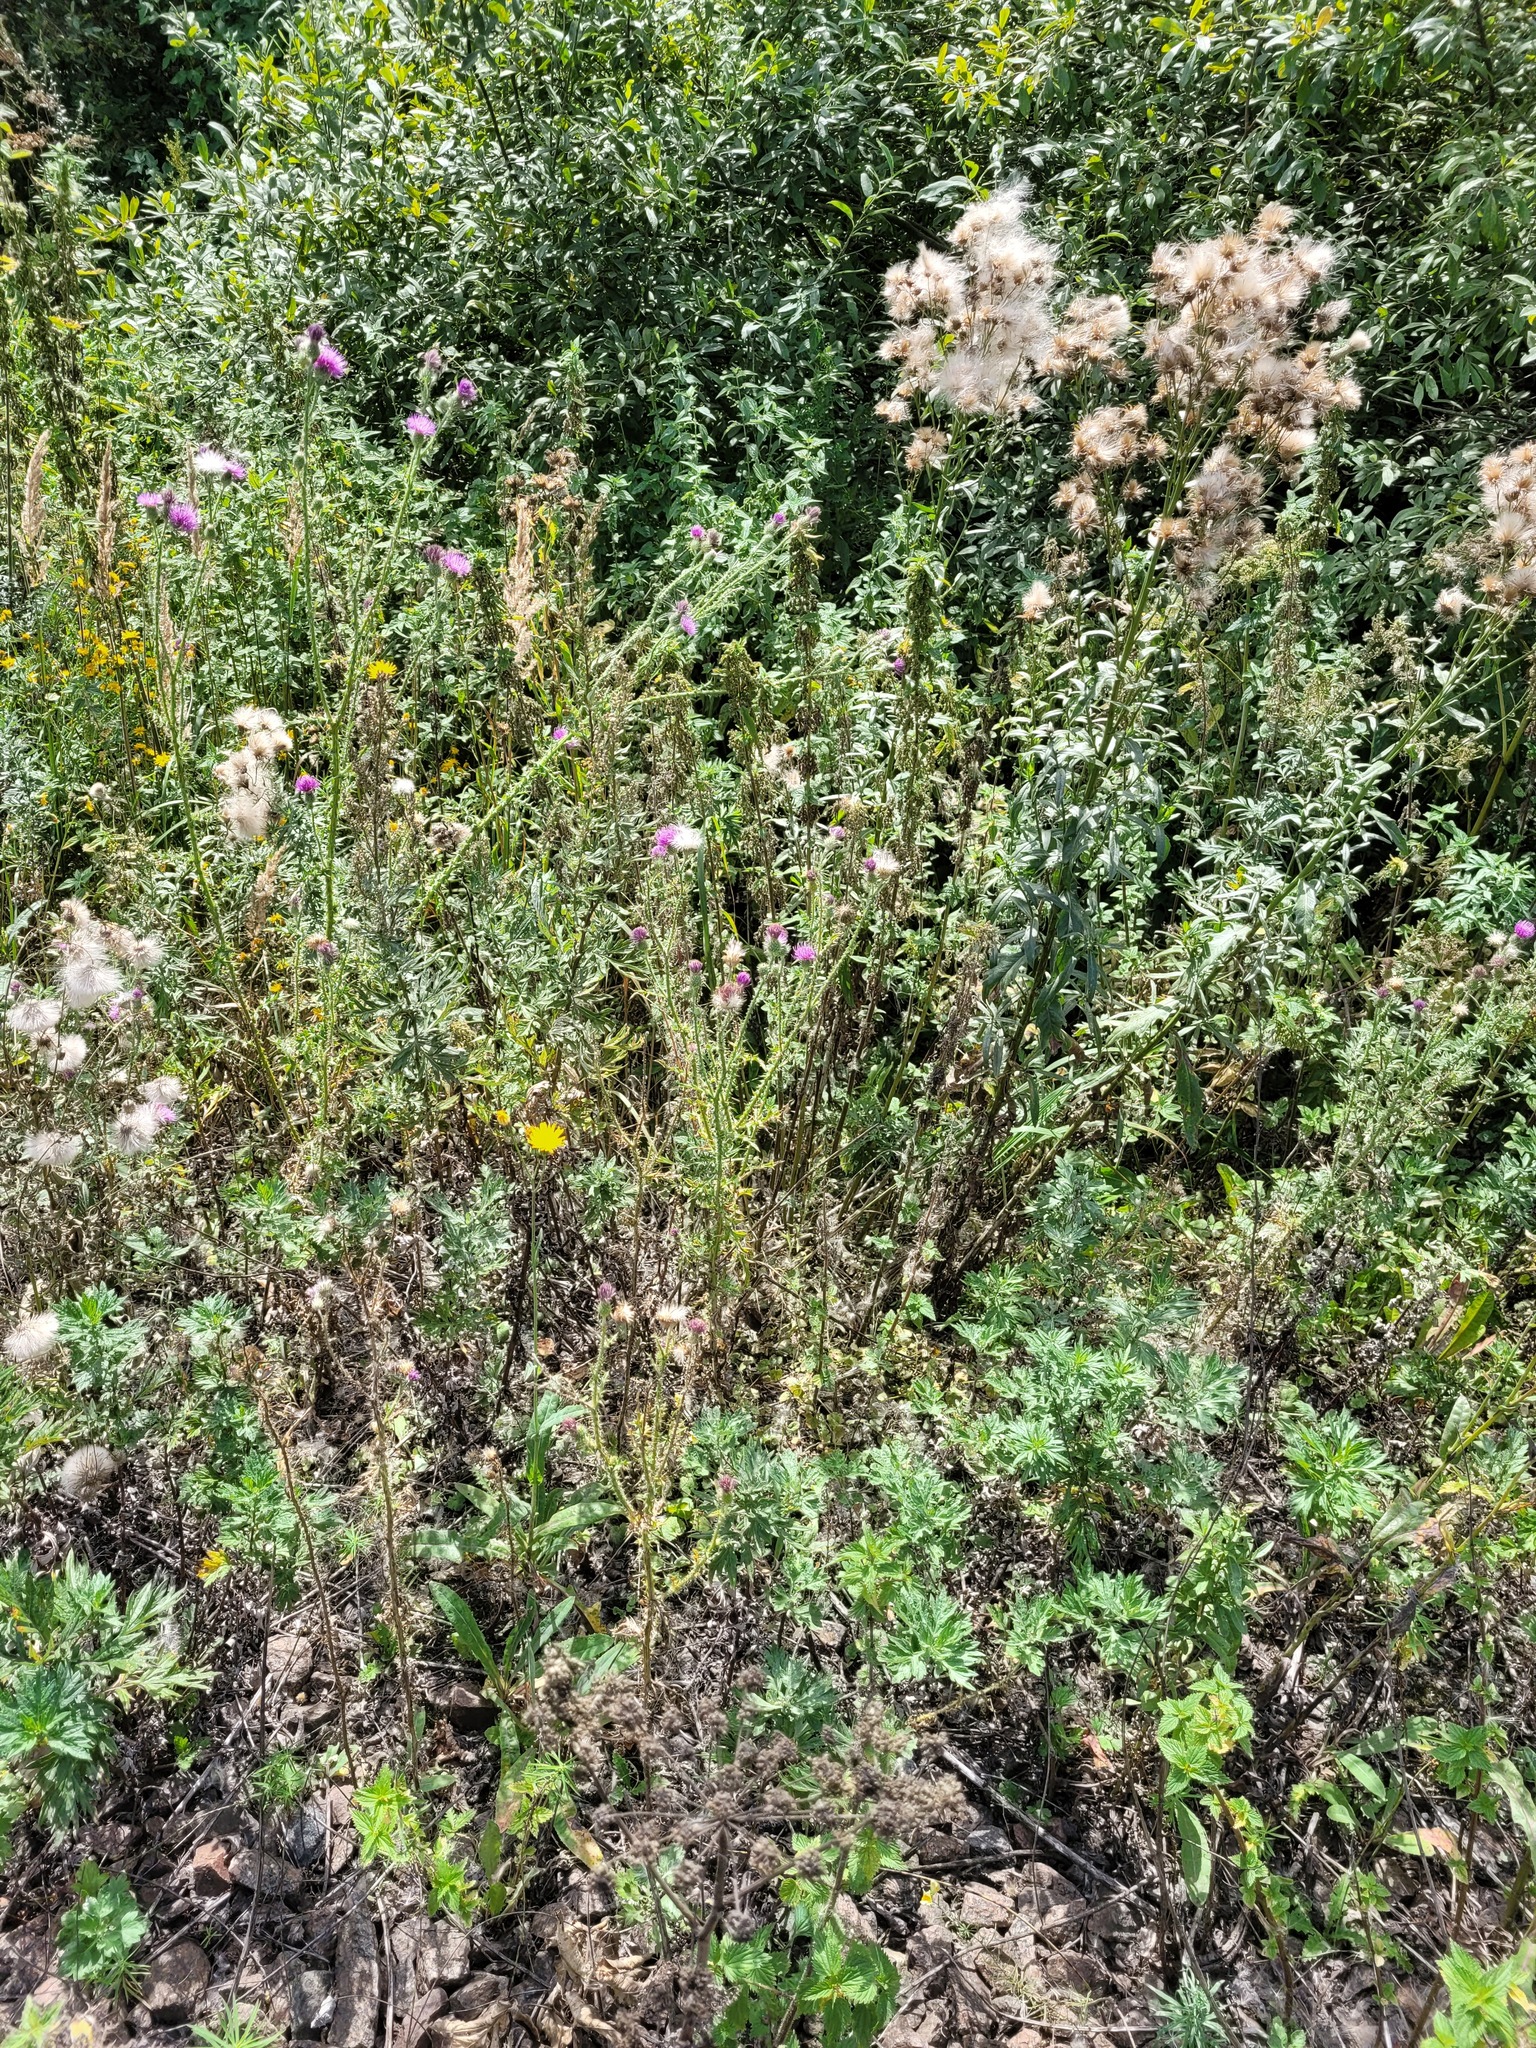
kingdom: Plantae
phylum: Tracheophyta
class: Magnoliopsida
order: Asterales
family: Asteraceae
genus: Carduus
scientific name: Carduus acanthoides
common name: Plumeless thistle
